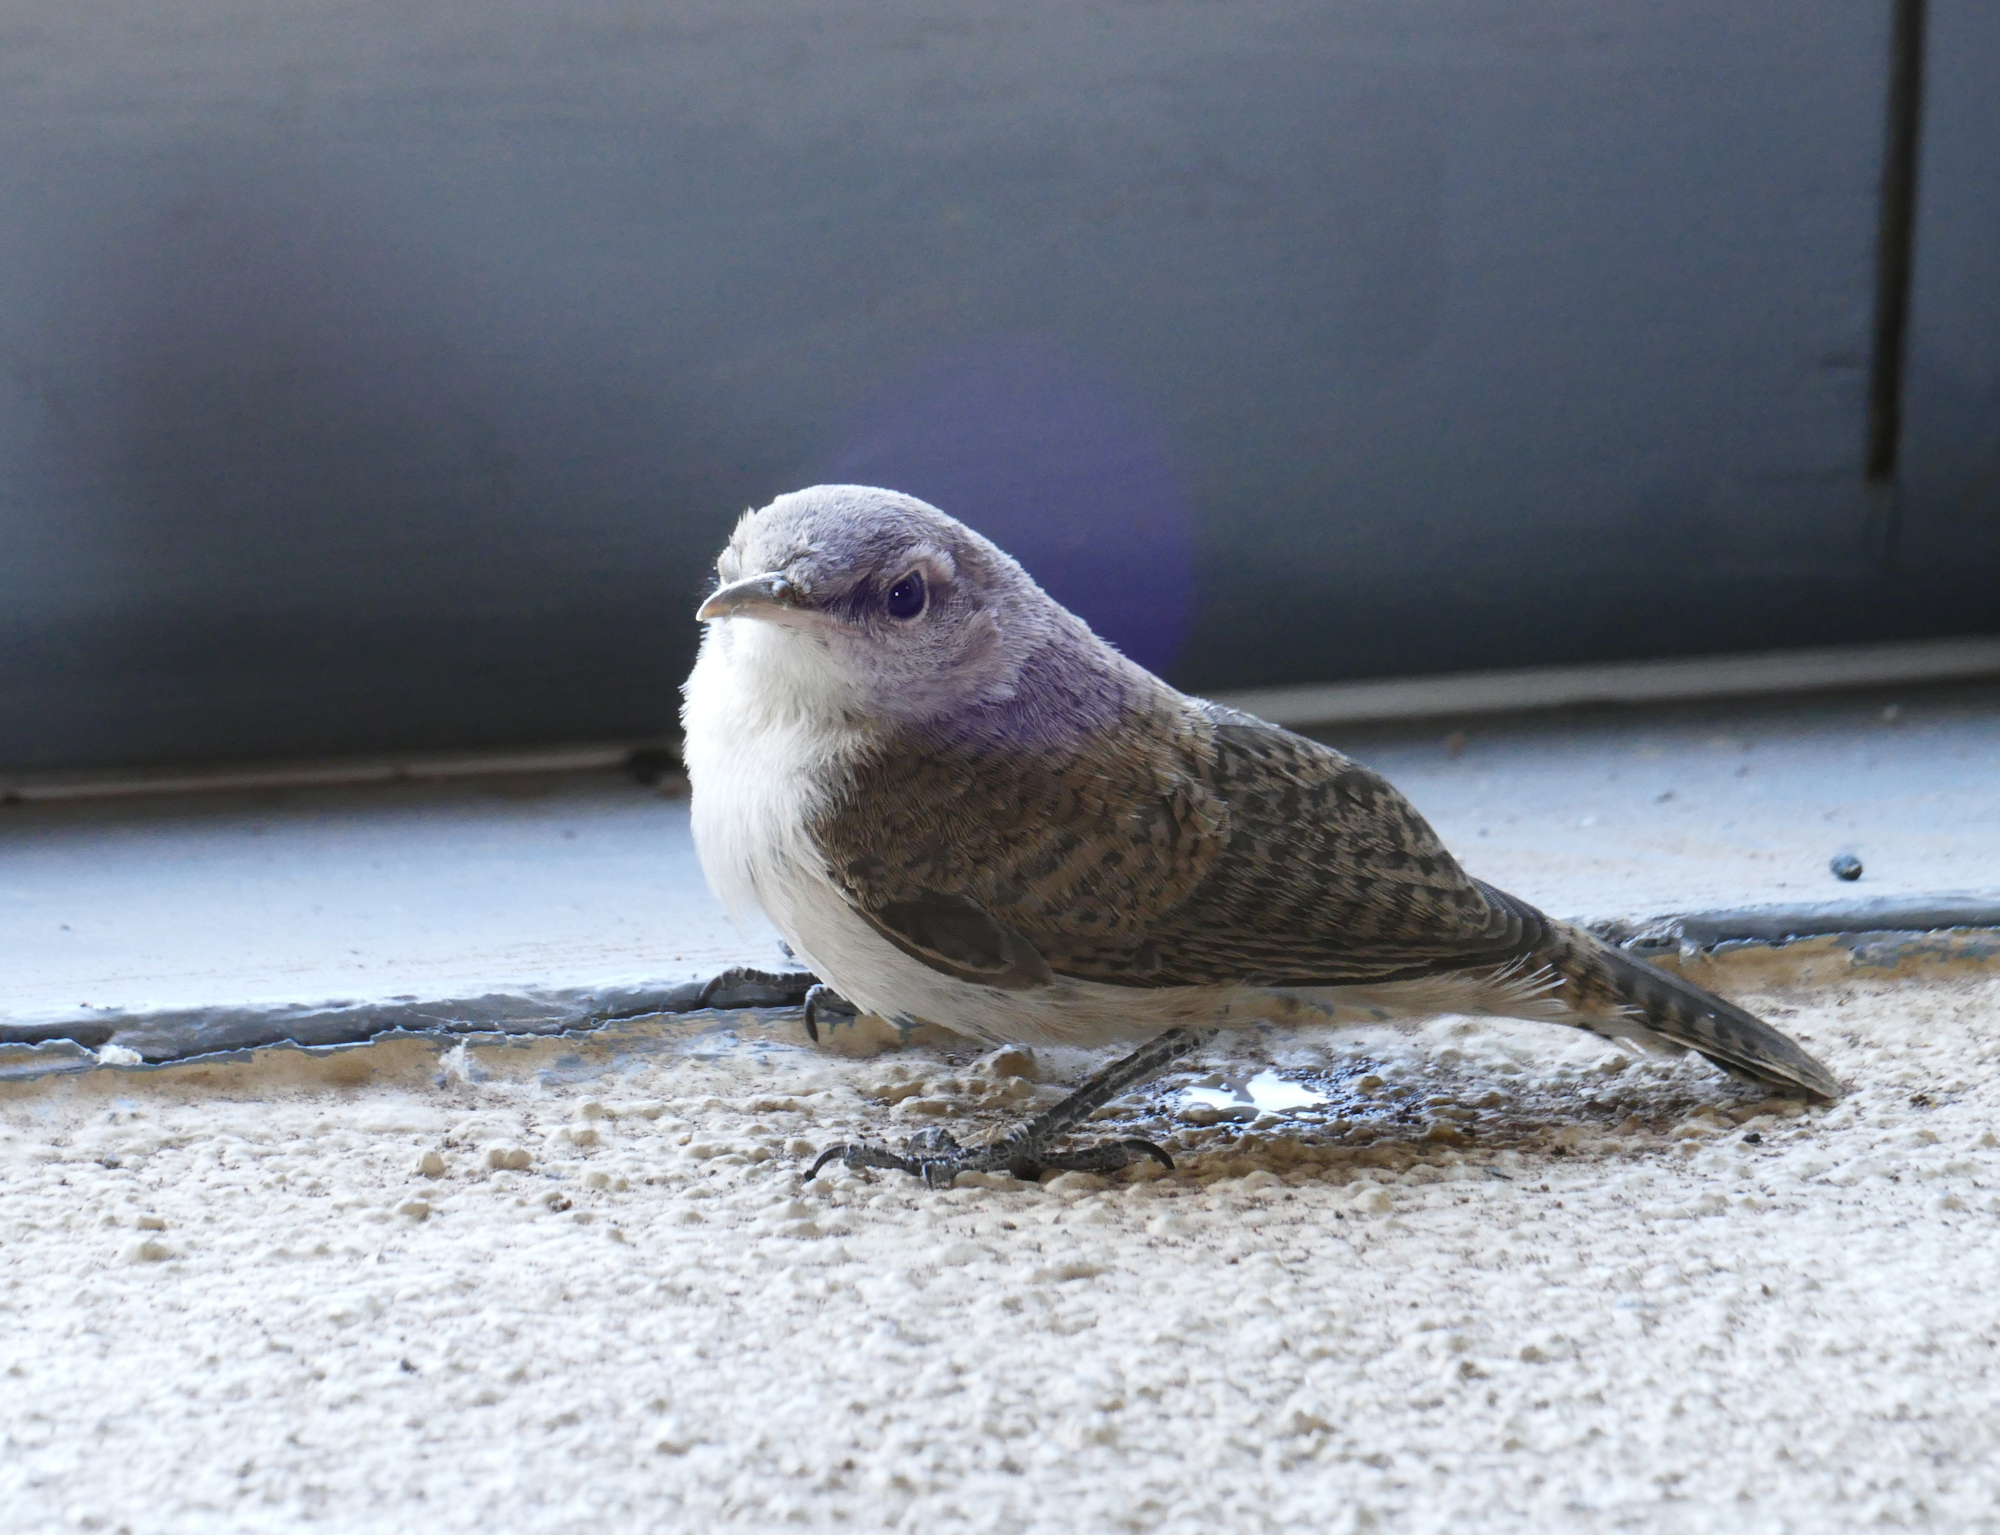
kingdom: Animalia
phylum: Chordata
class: Aves
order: Passeriformes
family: Troglodytidae
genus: Salpinctes
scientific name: Salpinctes obsoletus
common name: Rock wren
